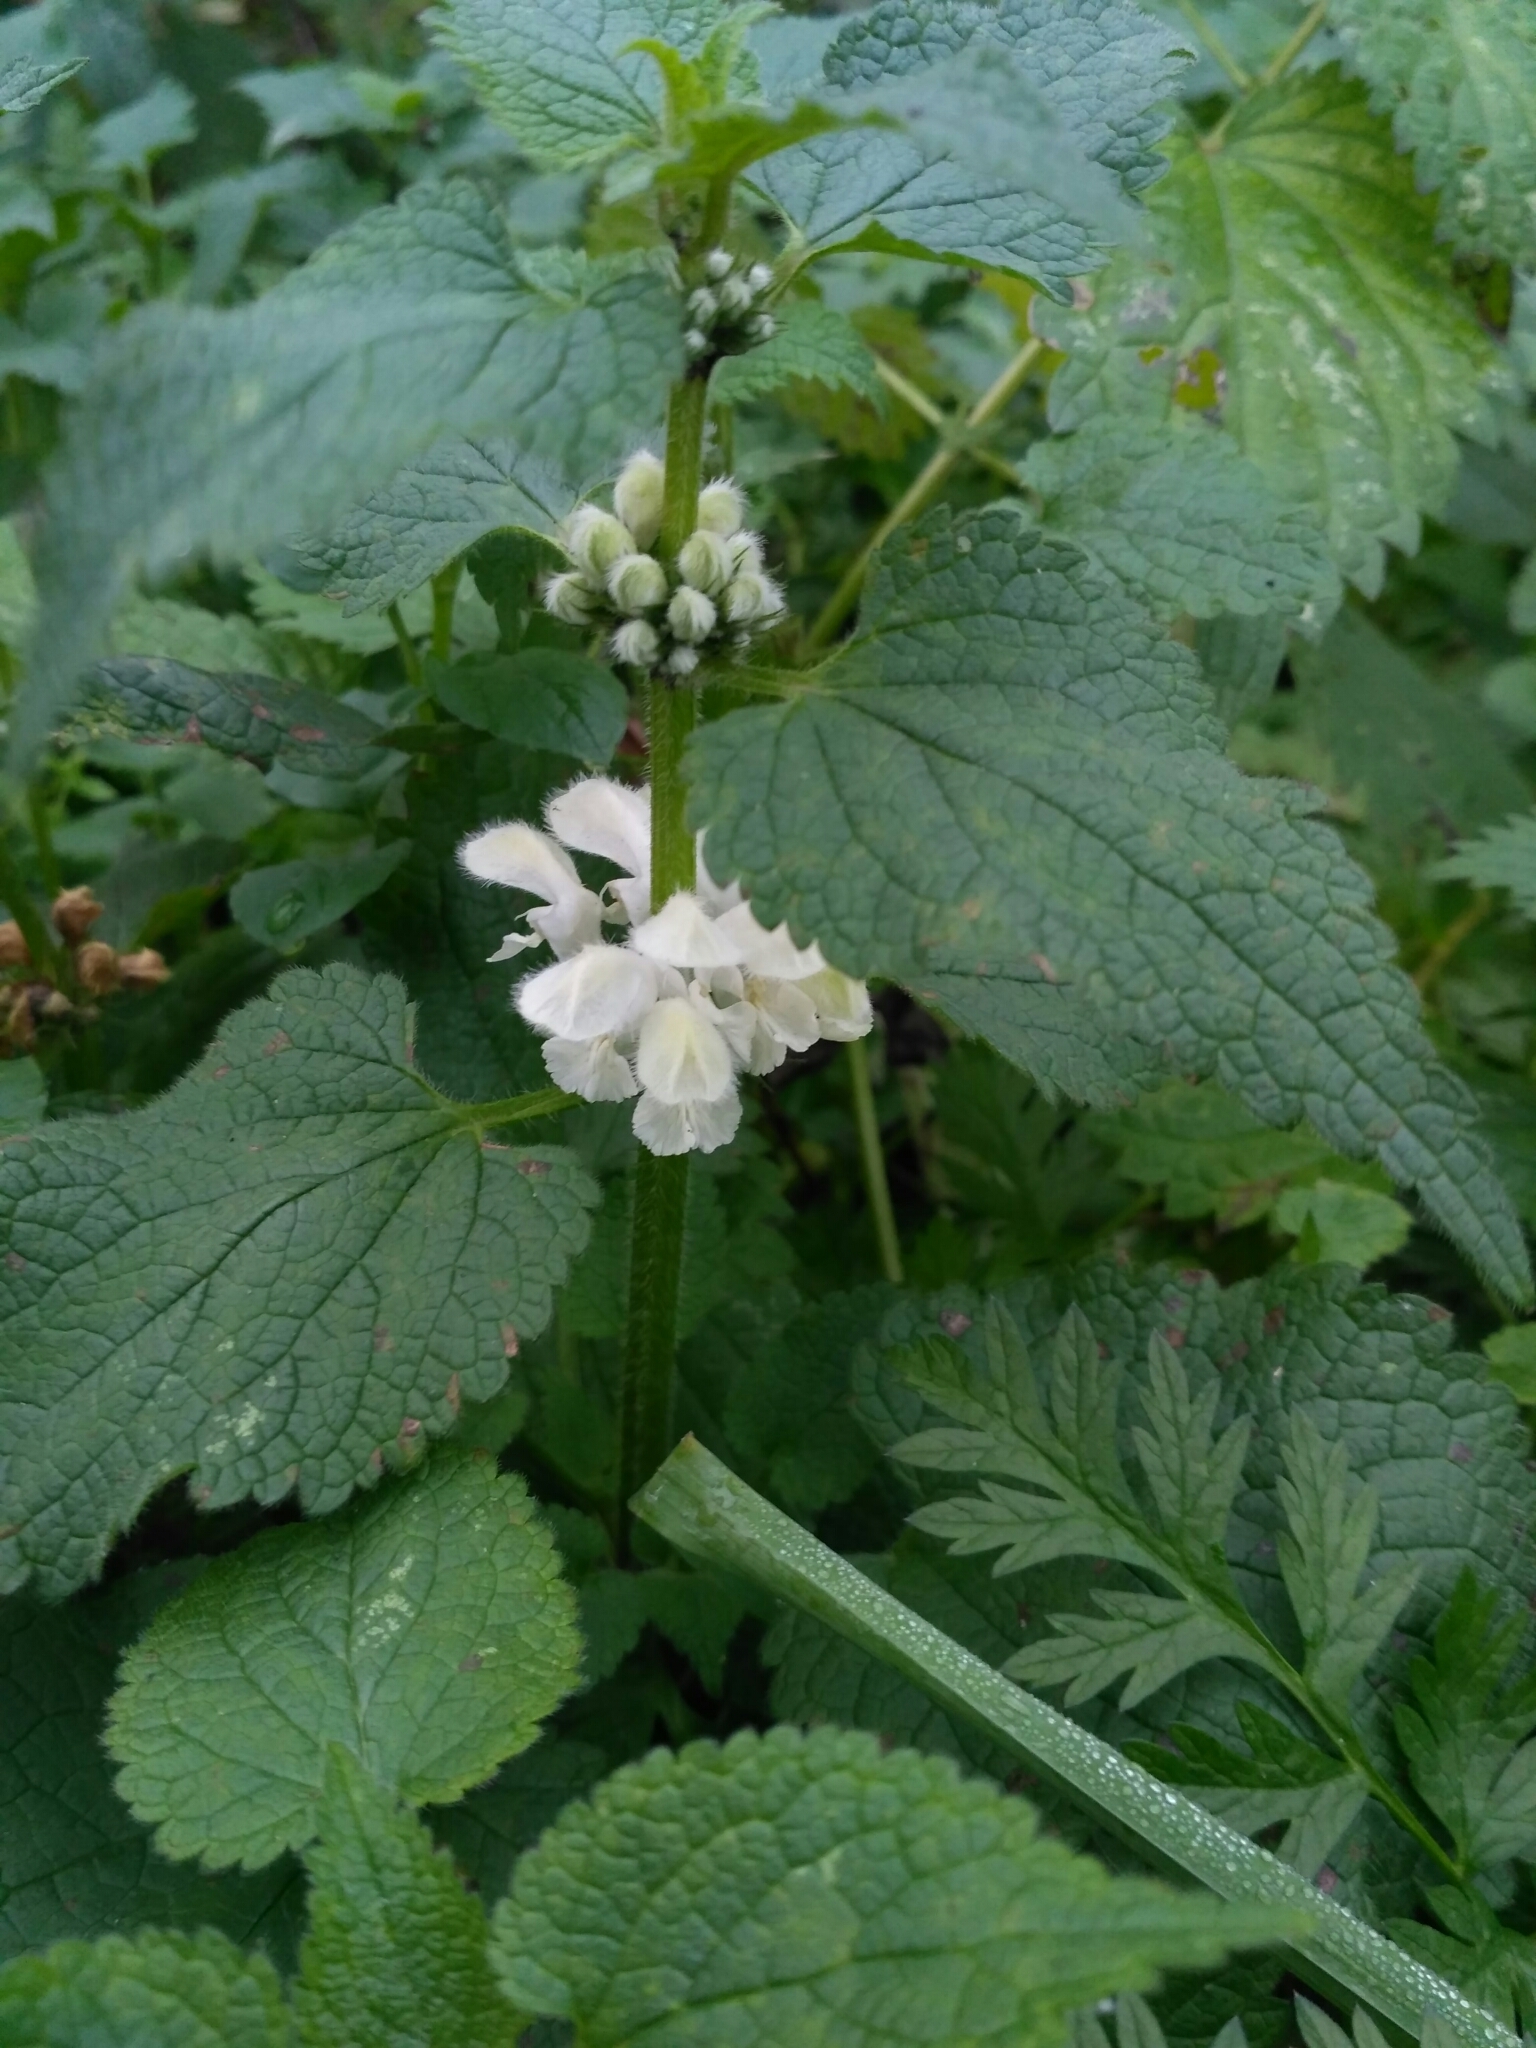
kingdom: Plantae
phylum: Tracheophyta
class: Magnoliopsida
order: Lamiales
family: Lamiaceae
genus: Lamium
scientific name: Lamium album
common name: White dead-nettle
